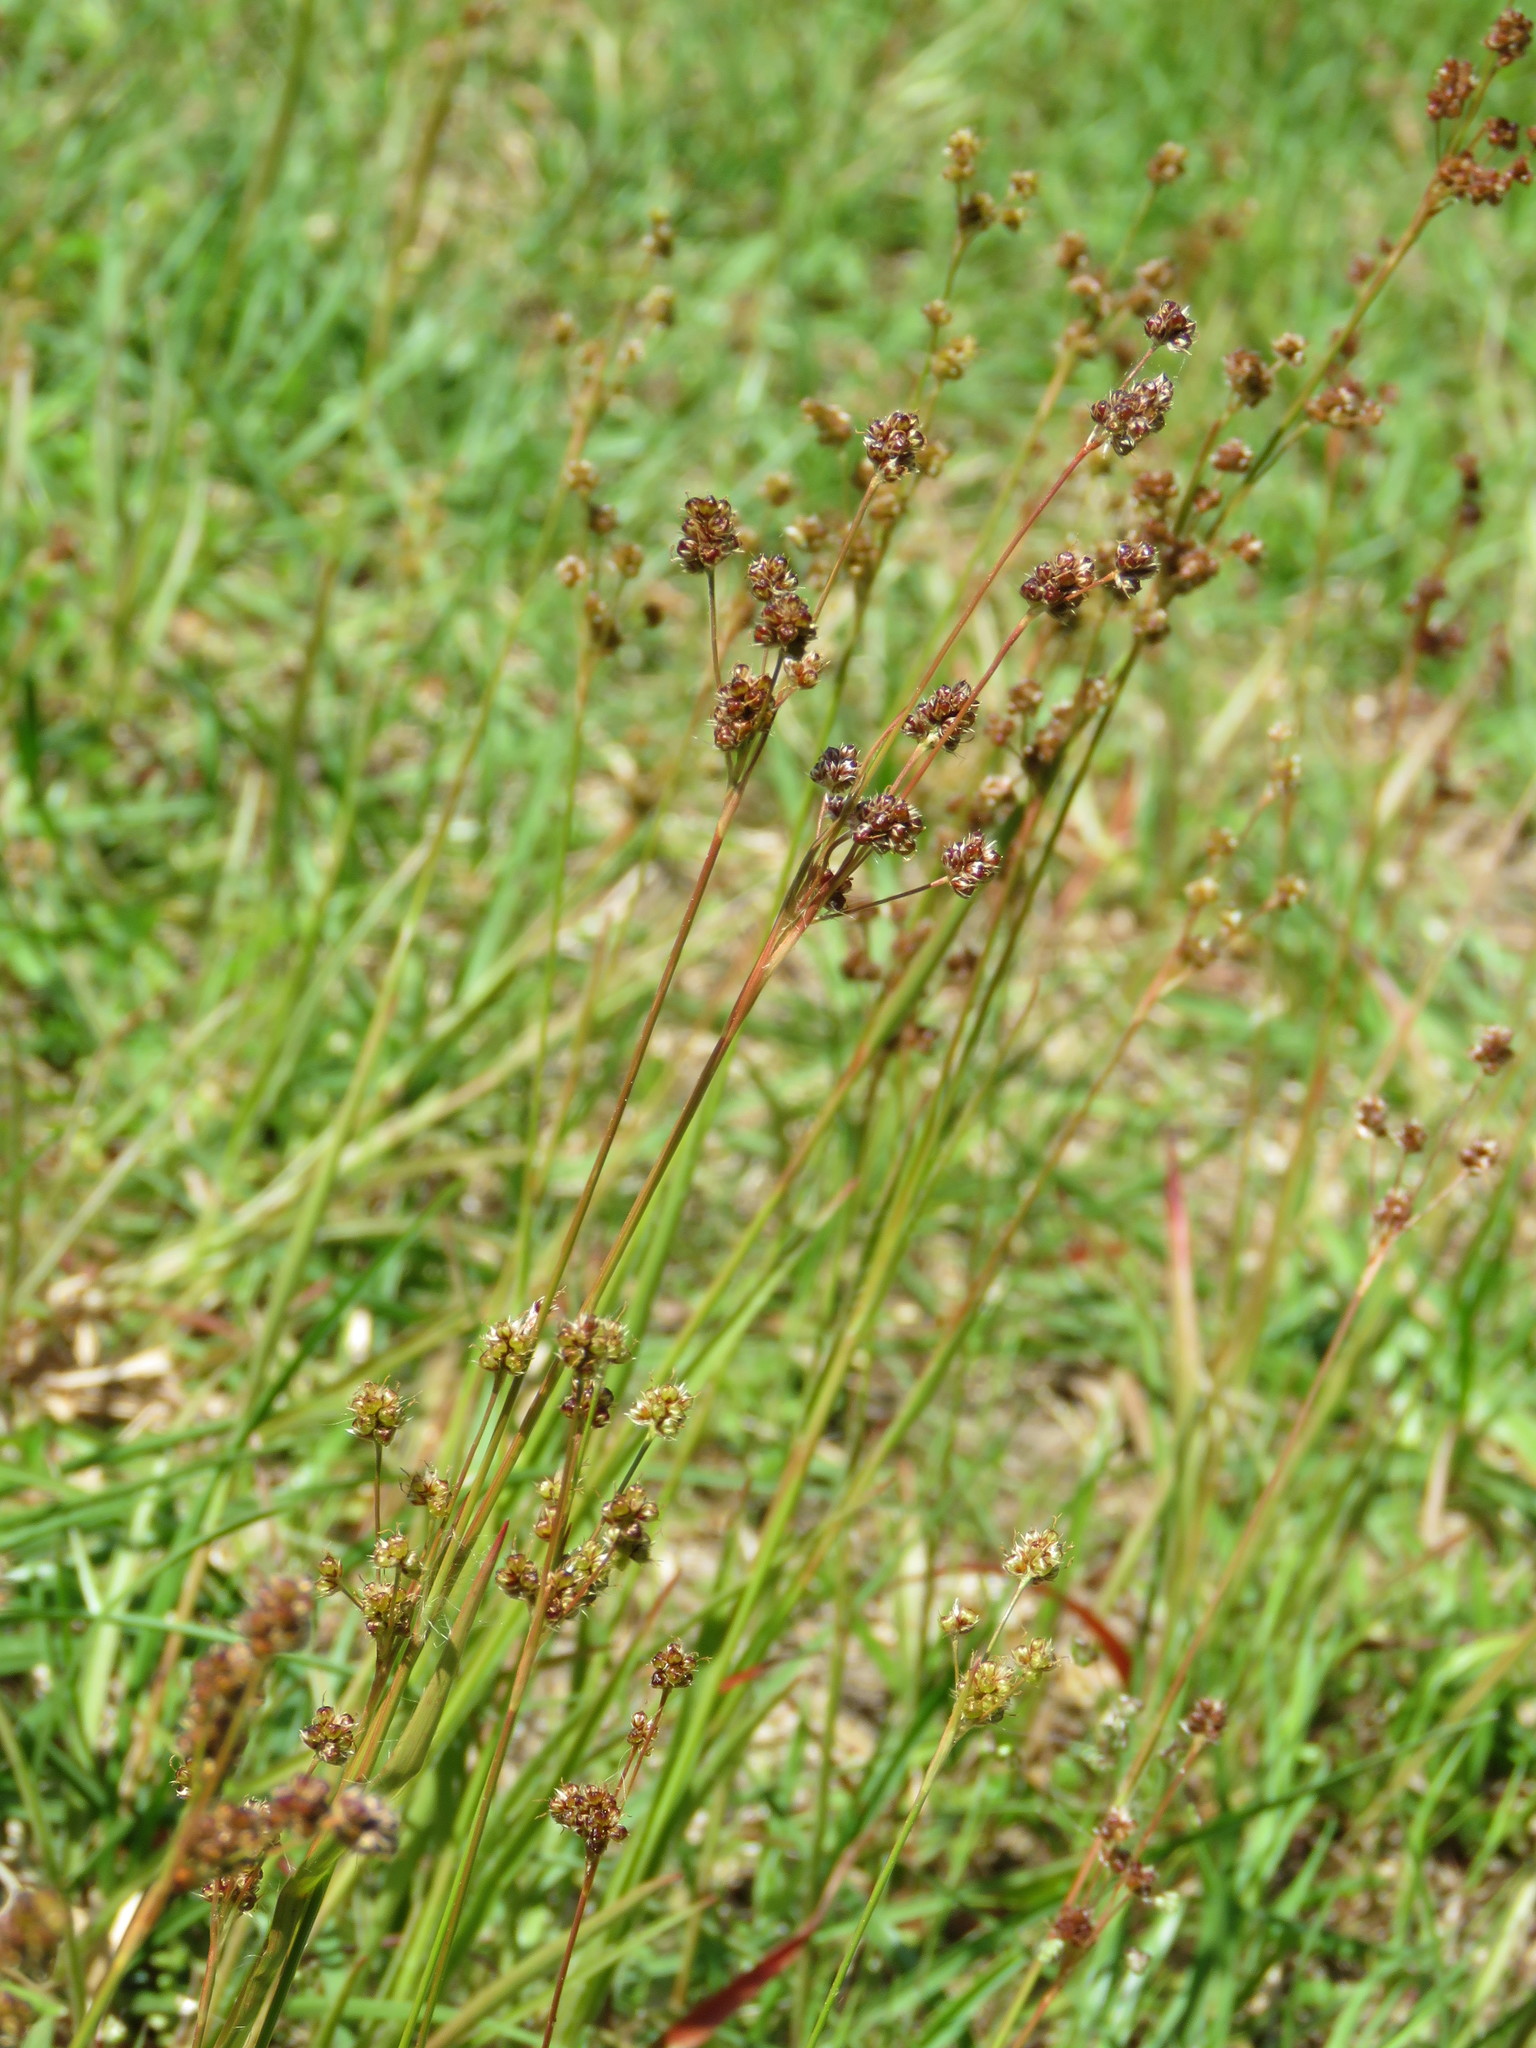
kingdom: Plantae
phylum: Tracheophyta
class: Liliopsida
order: Poales
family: Juncaceae
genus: Luzula
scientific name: Luzula bulbosa
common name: Bulbous woodrush
